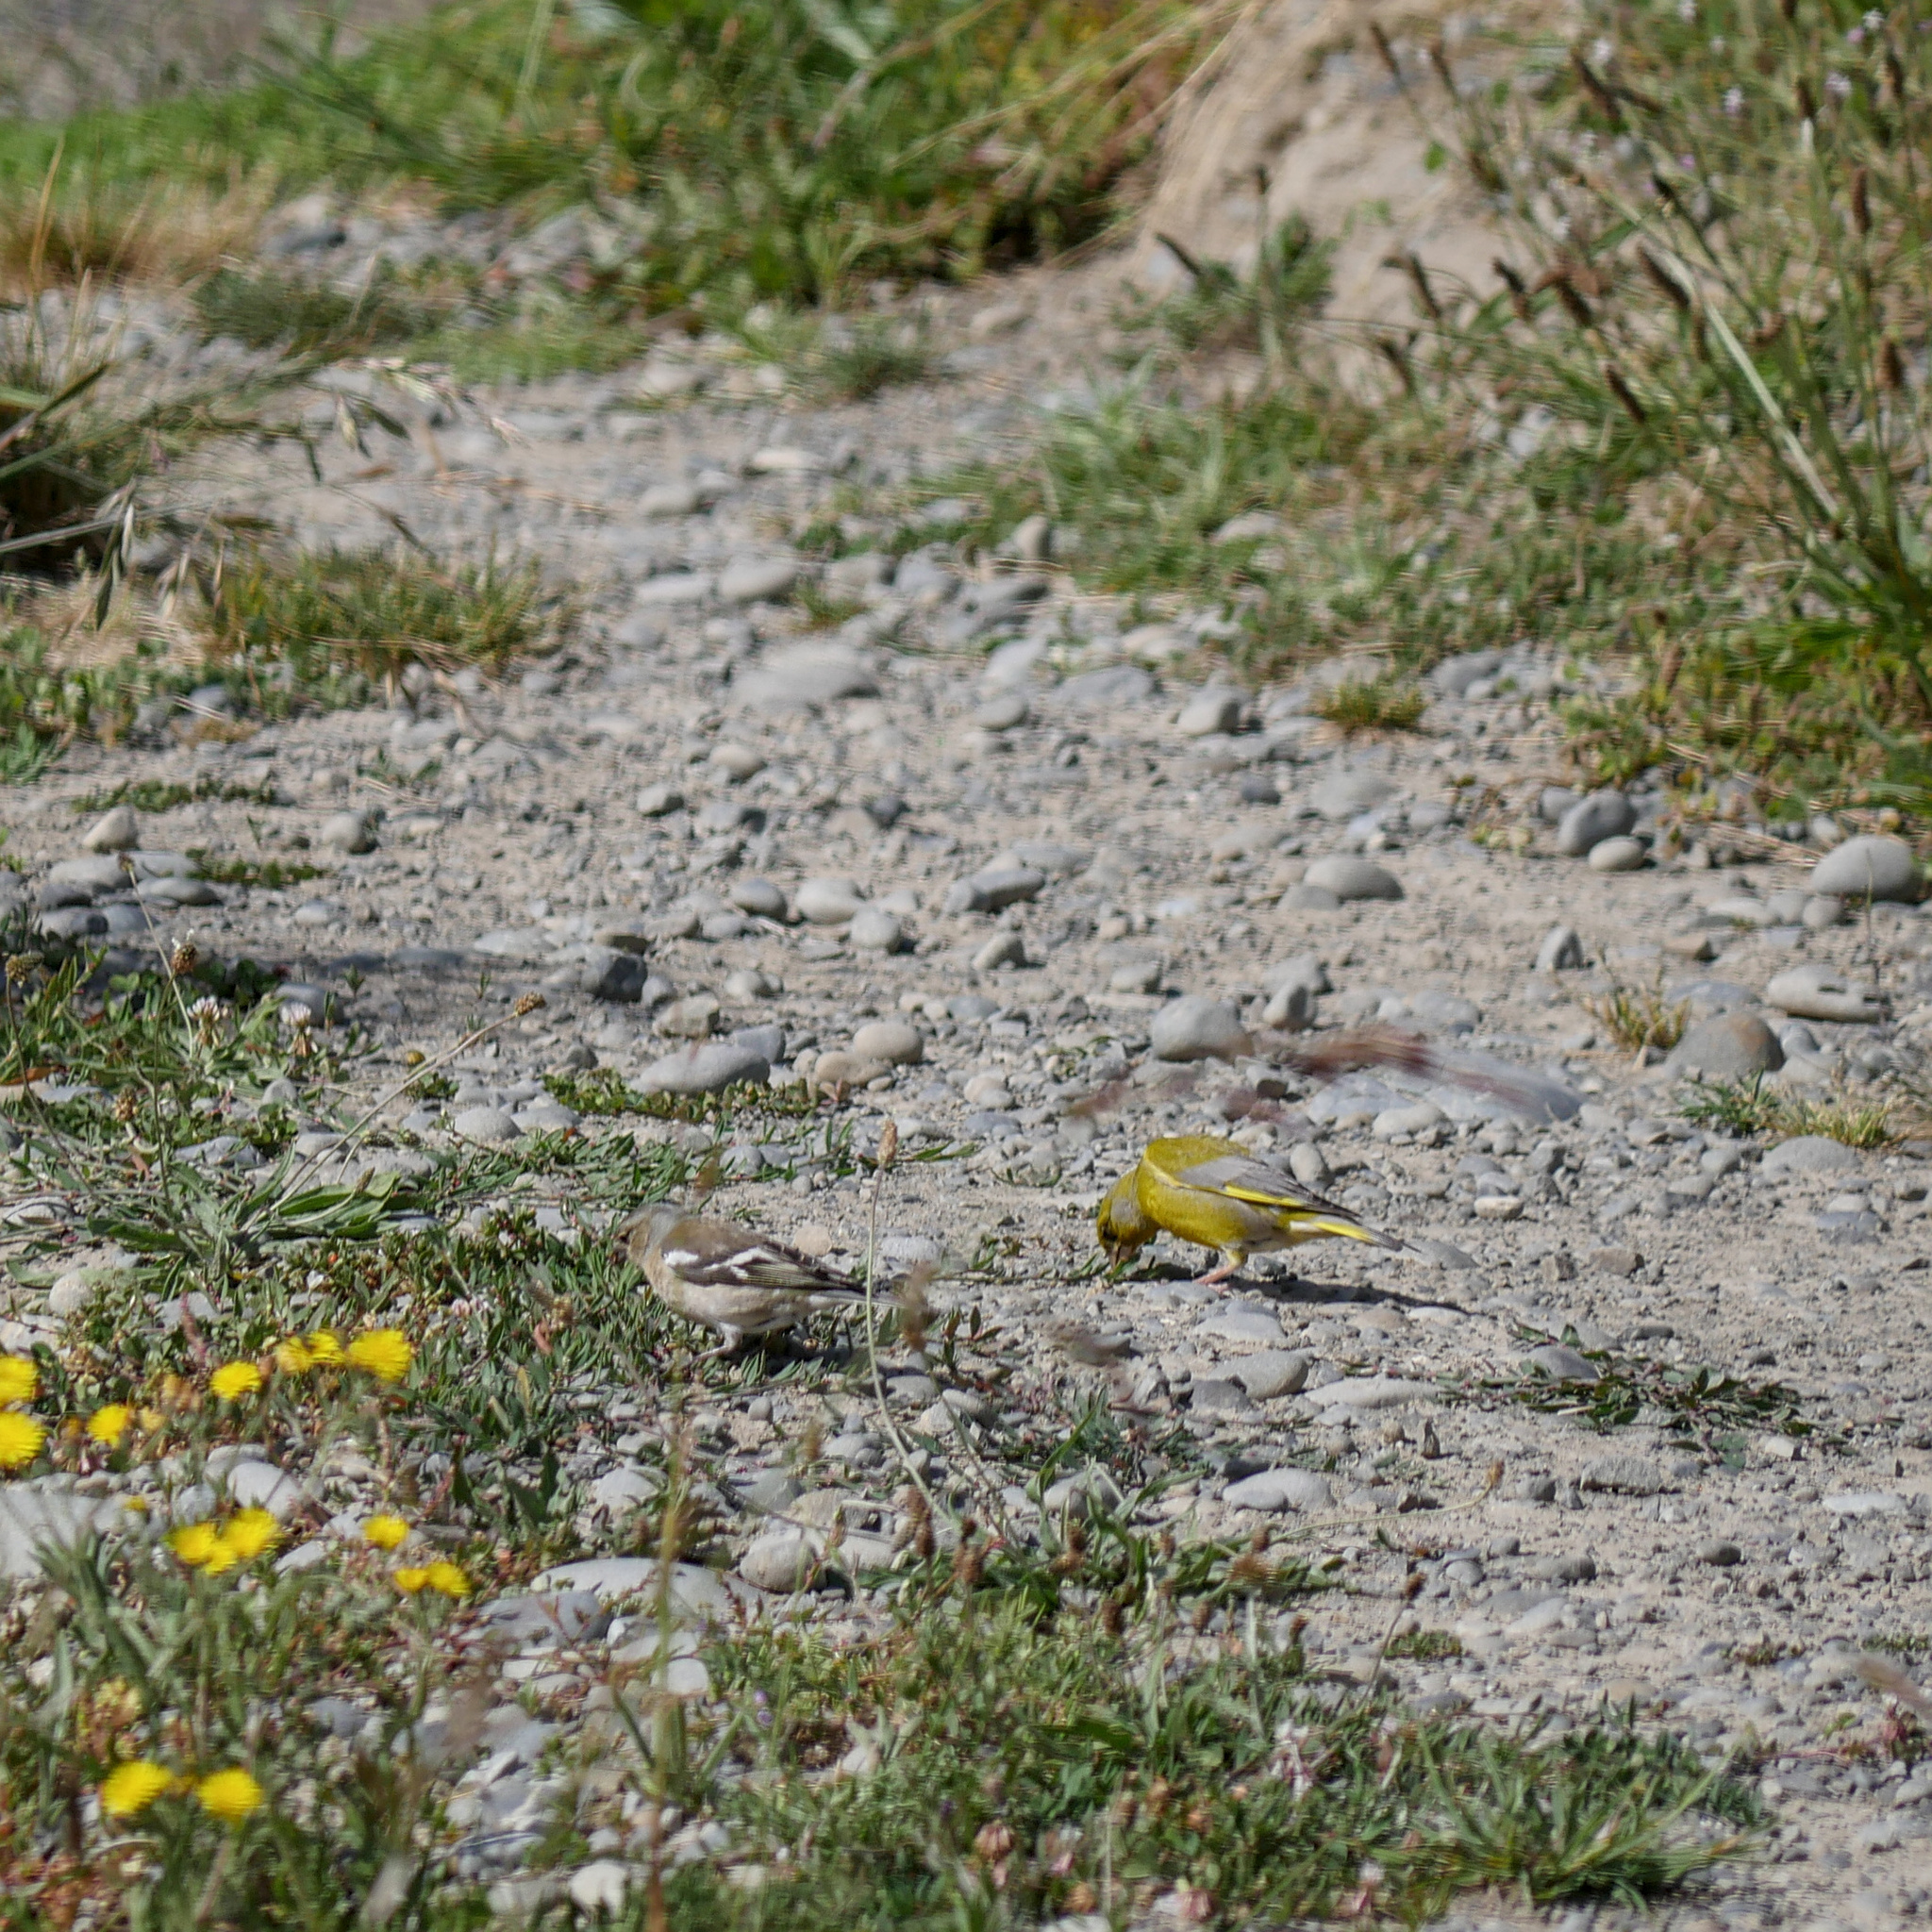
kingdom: Plantae
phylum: Tracheophyta
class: Liliopsida
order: Poales
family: Poaceae
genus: Chloris
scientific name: Chloris chloris
